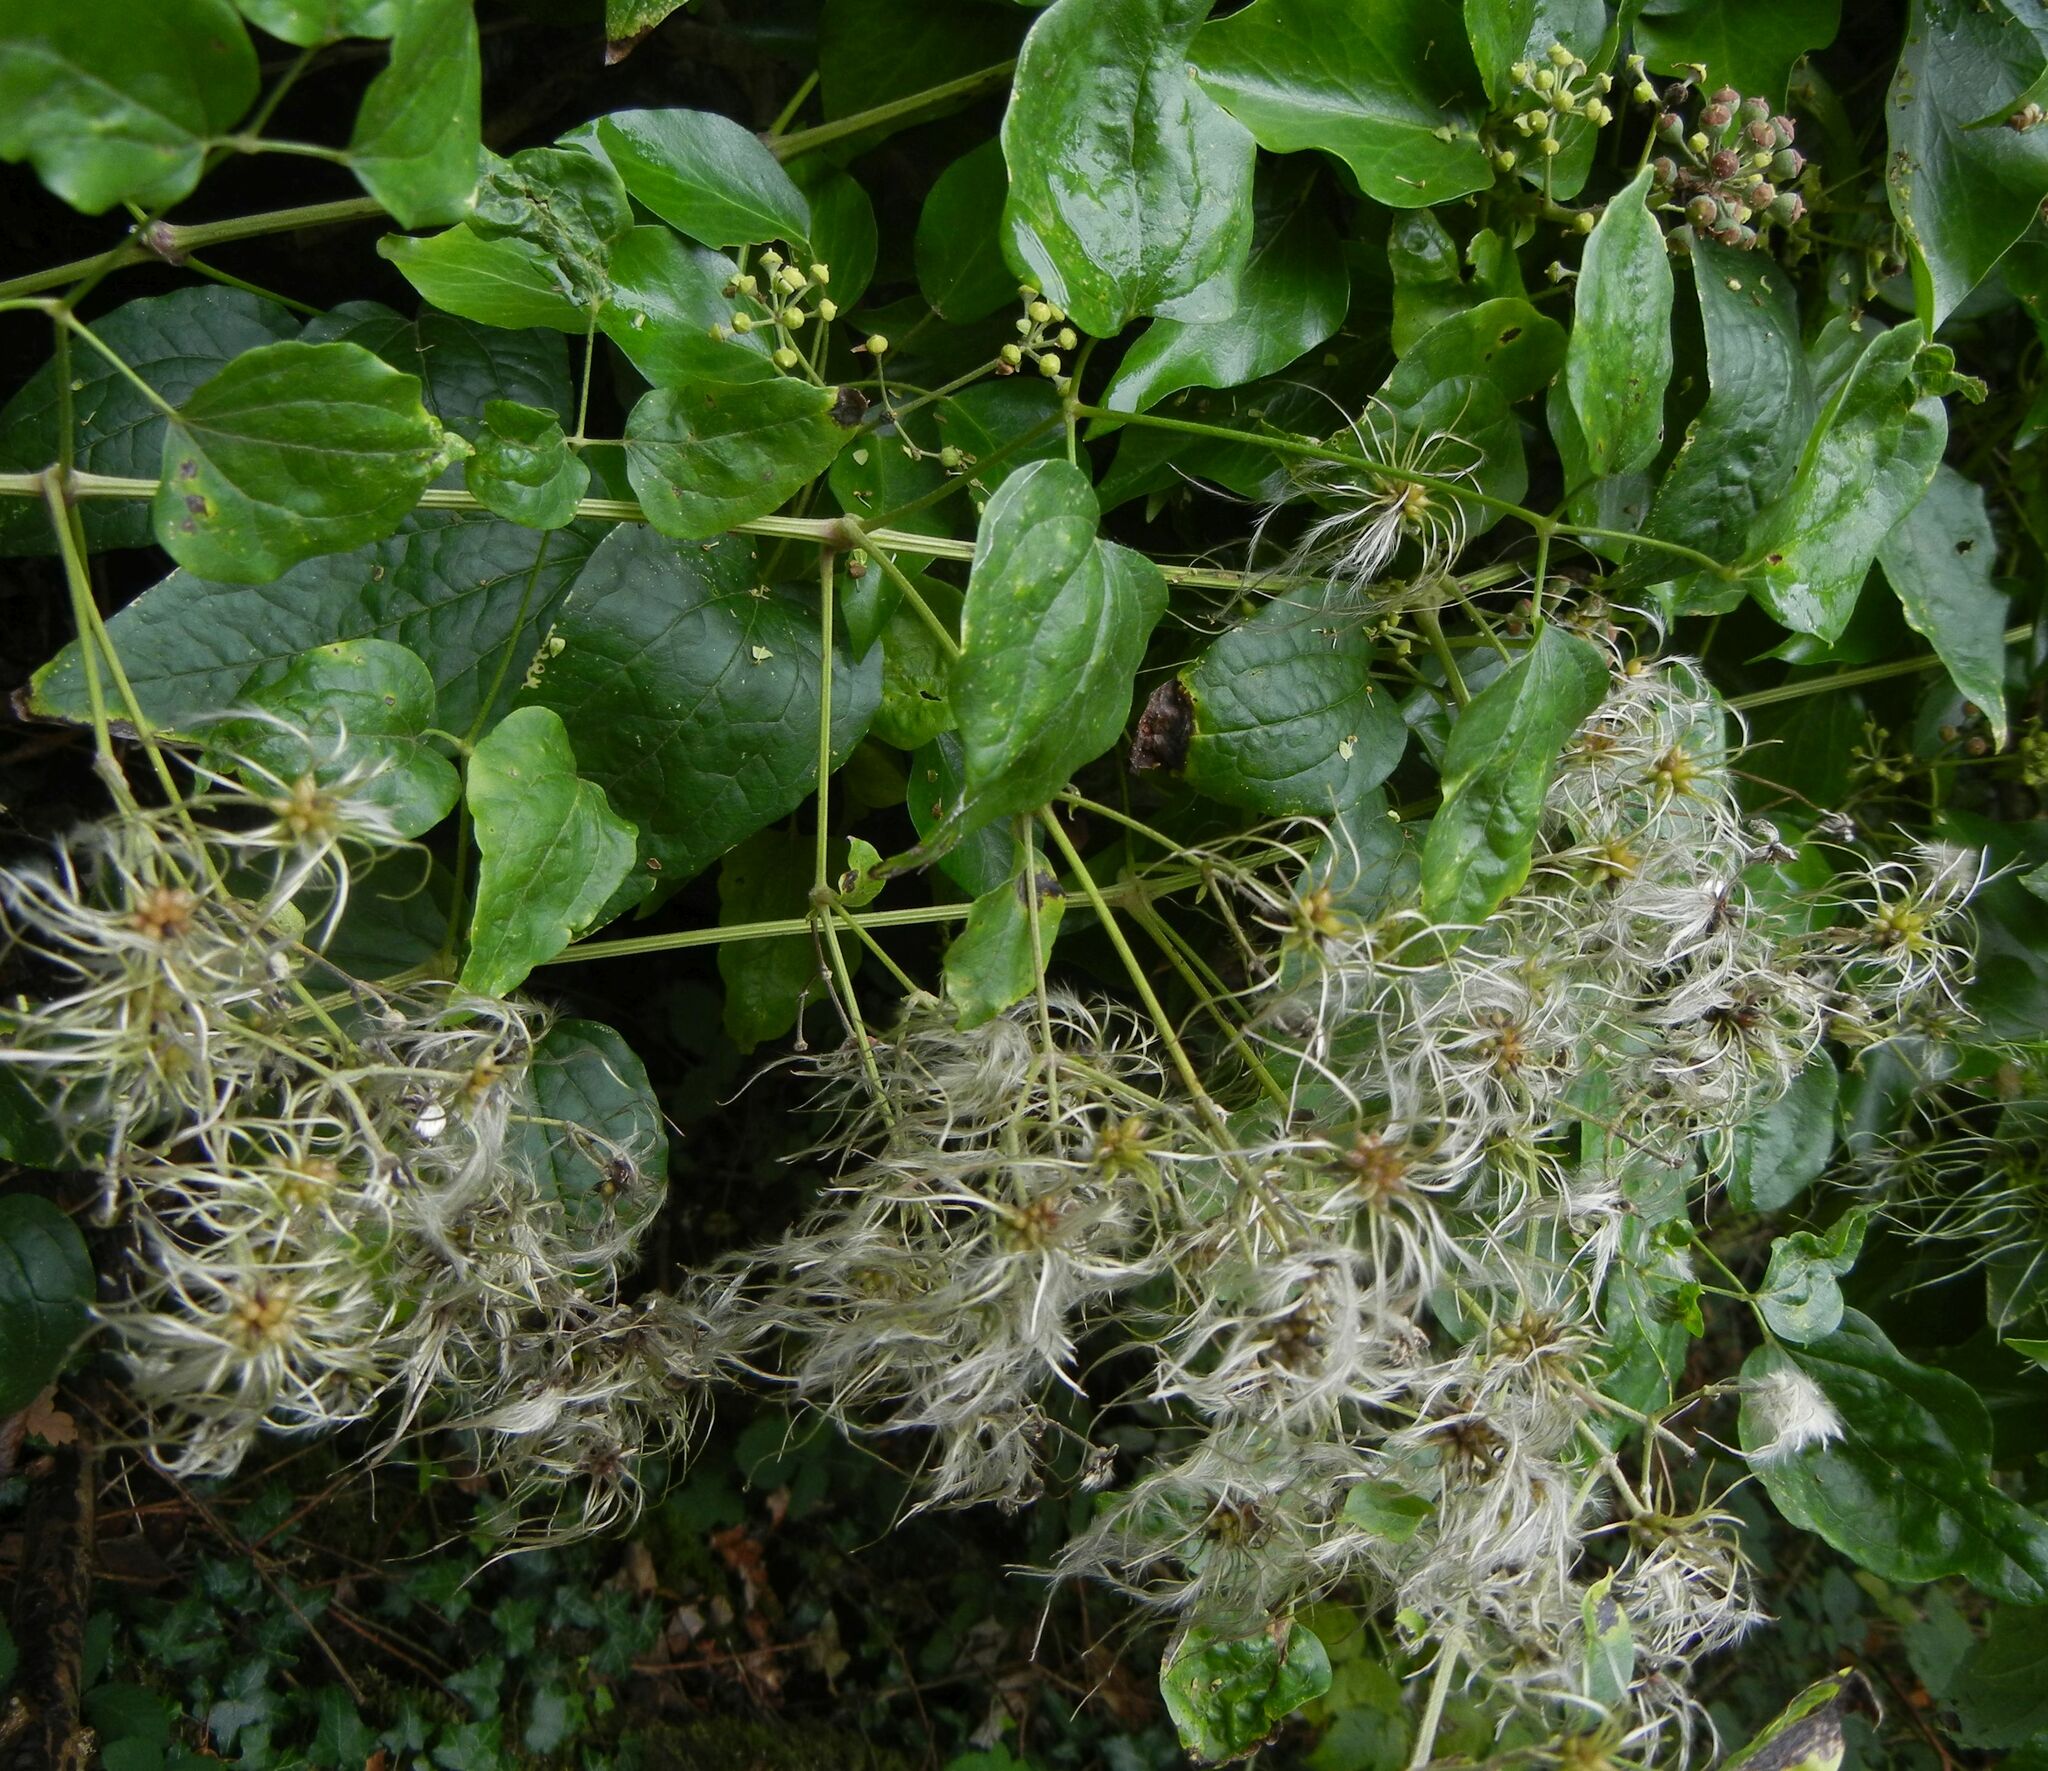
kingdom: Plantae
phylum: Tracheophyta
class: Magnoliopsida
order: Ranunculales
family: Ranunculaceae
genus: Clematis
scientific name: Clematis vitalba
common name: Evergreen clematis
